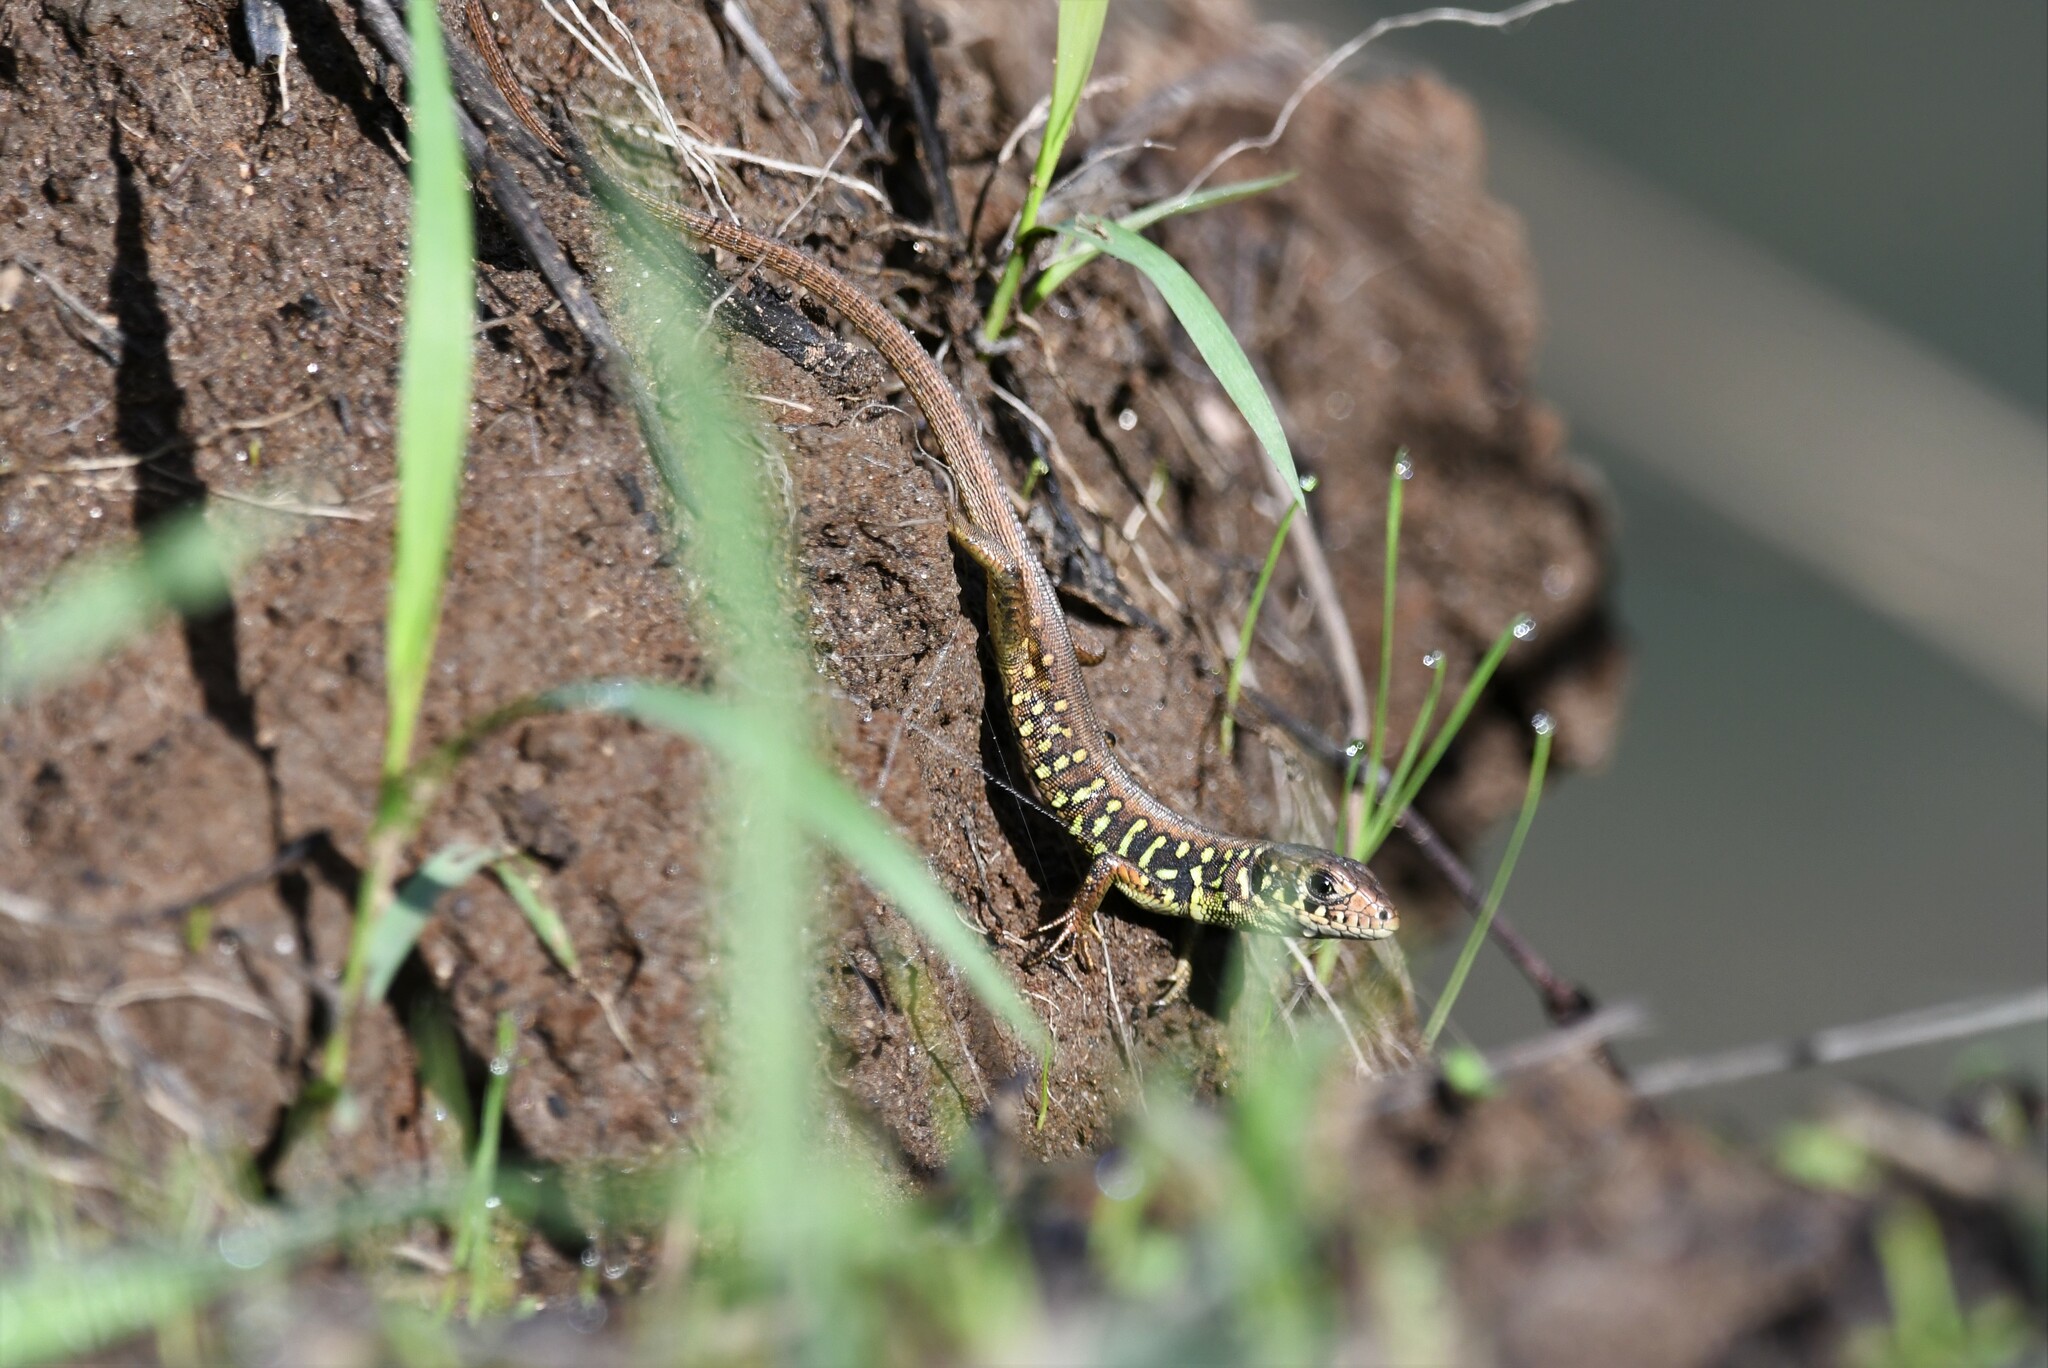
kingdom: Animalia
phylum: Chordata
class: Squamata
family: Lacertidae
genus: Lacerta
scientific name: Lacerta schreiberi
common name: Iberian emerald lizard
